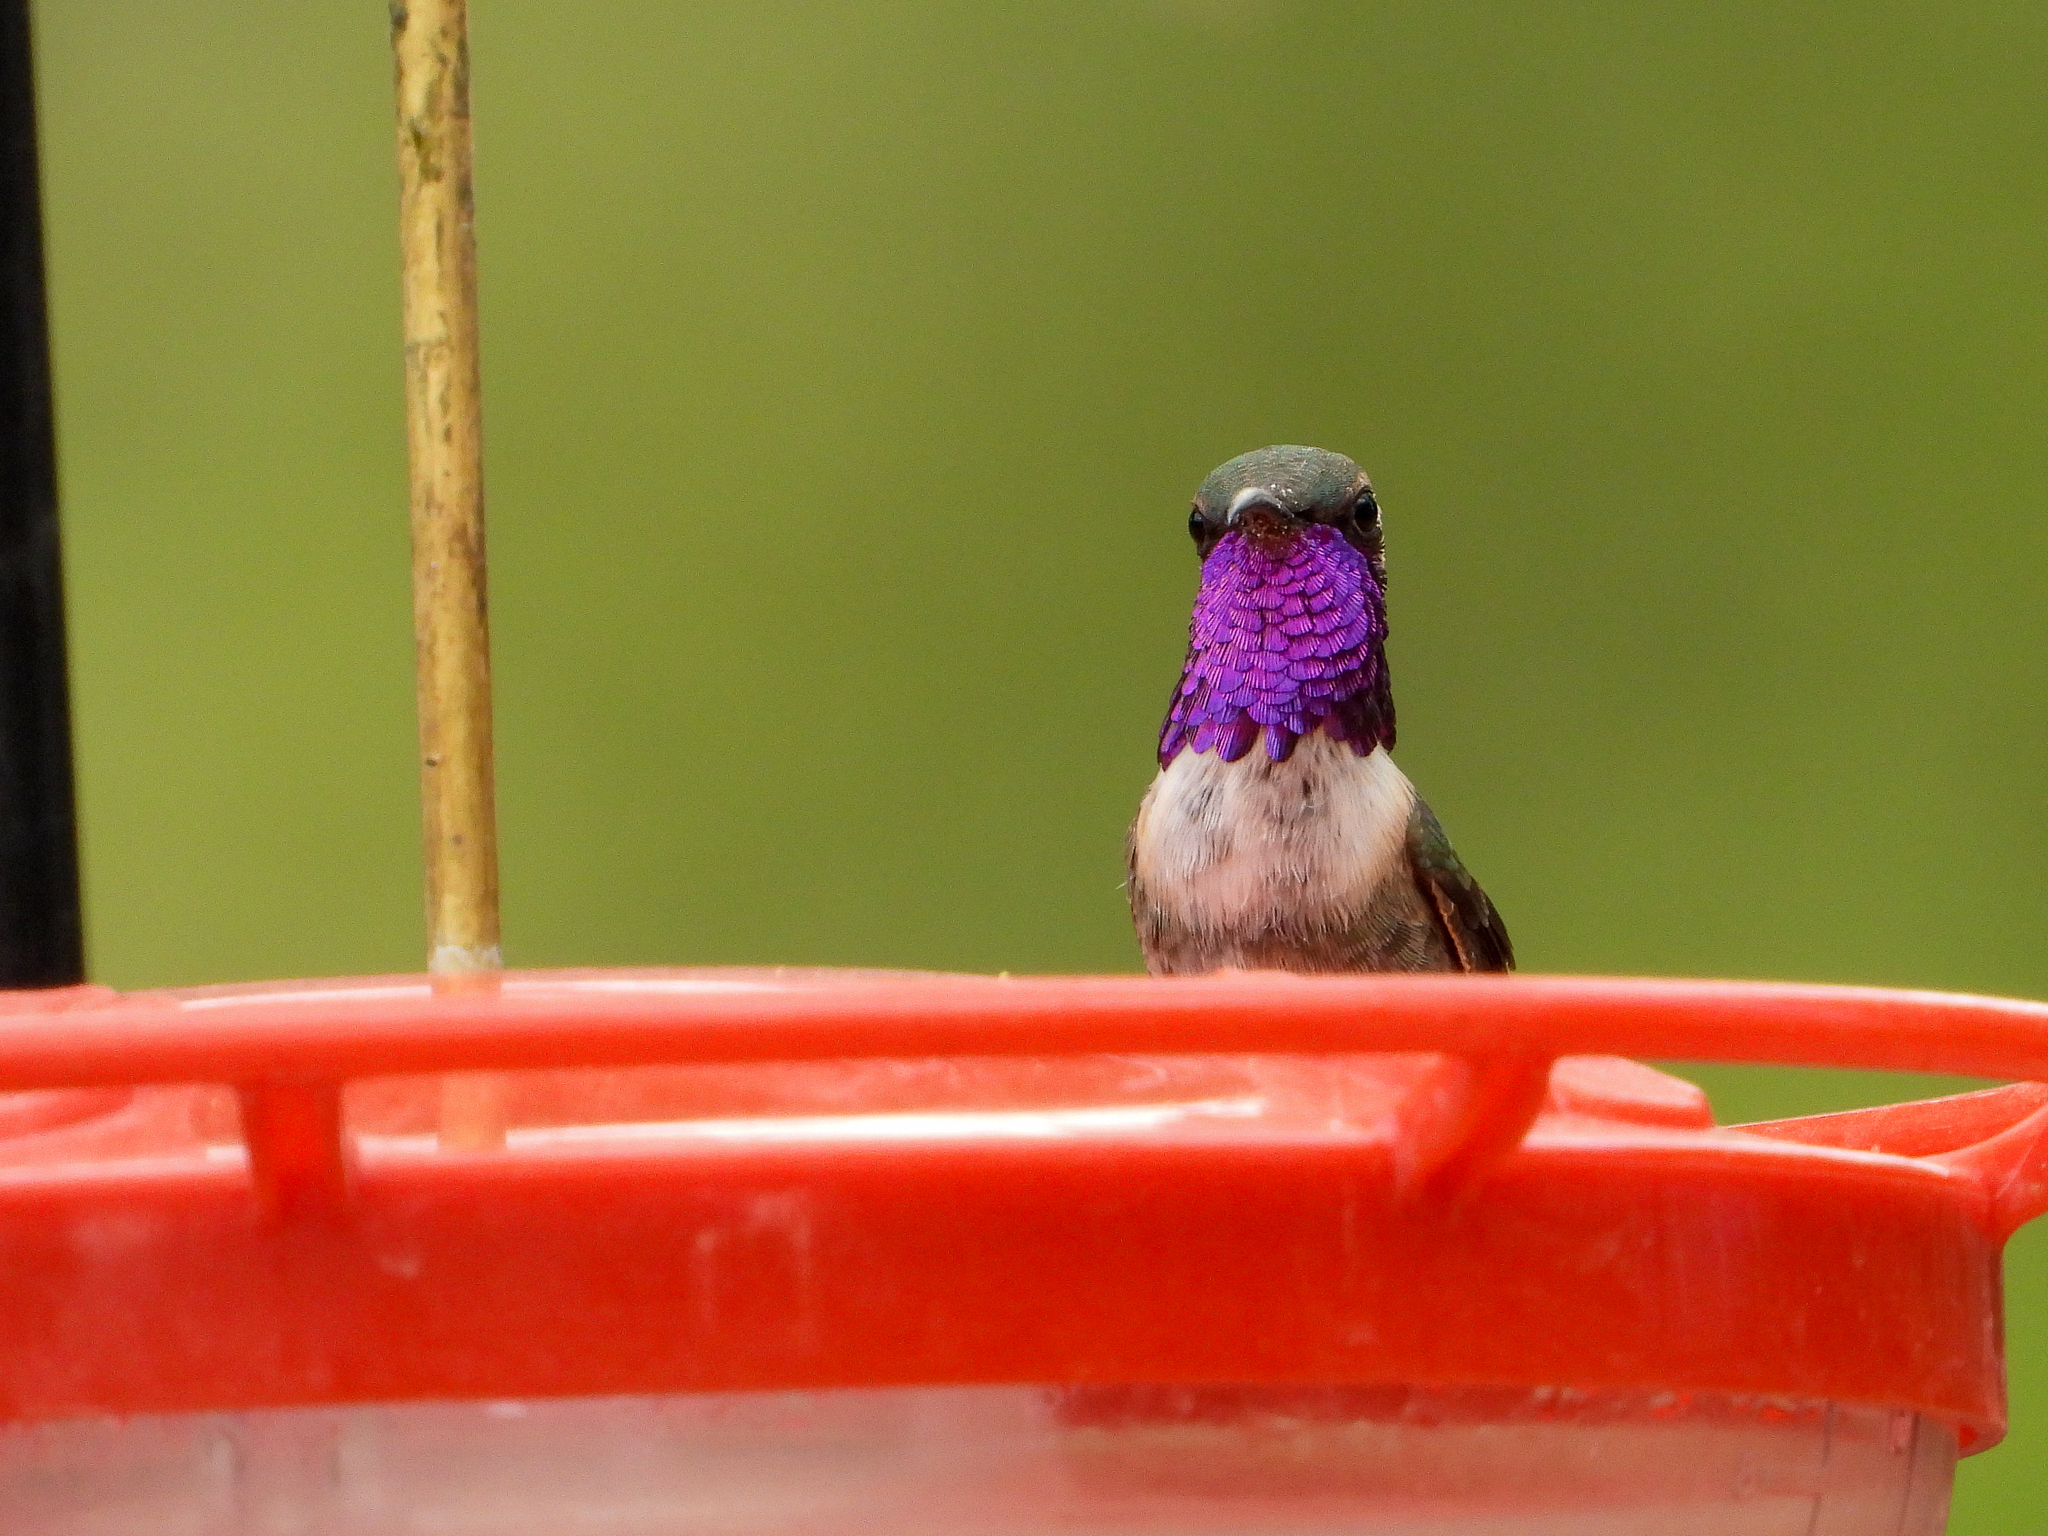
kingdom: Animalia
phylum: Chordata
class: Aves
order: Apodiformes
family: Trochilidae
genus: Calothorax
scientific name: Calothorax lucifer
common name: Lucifer sheartail
